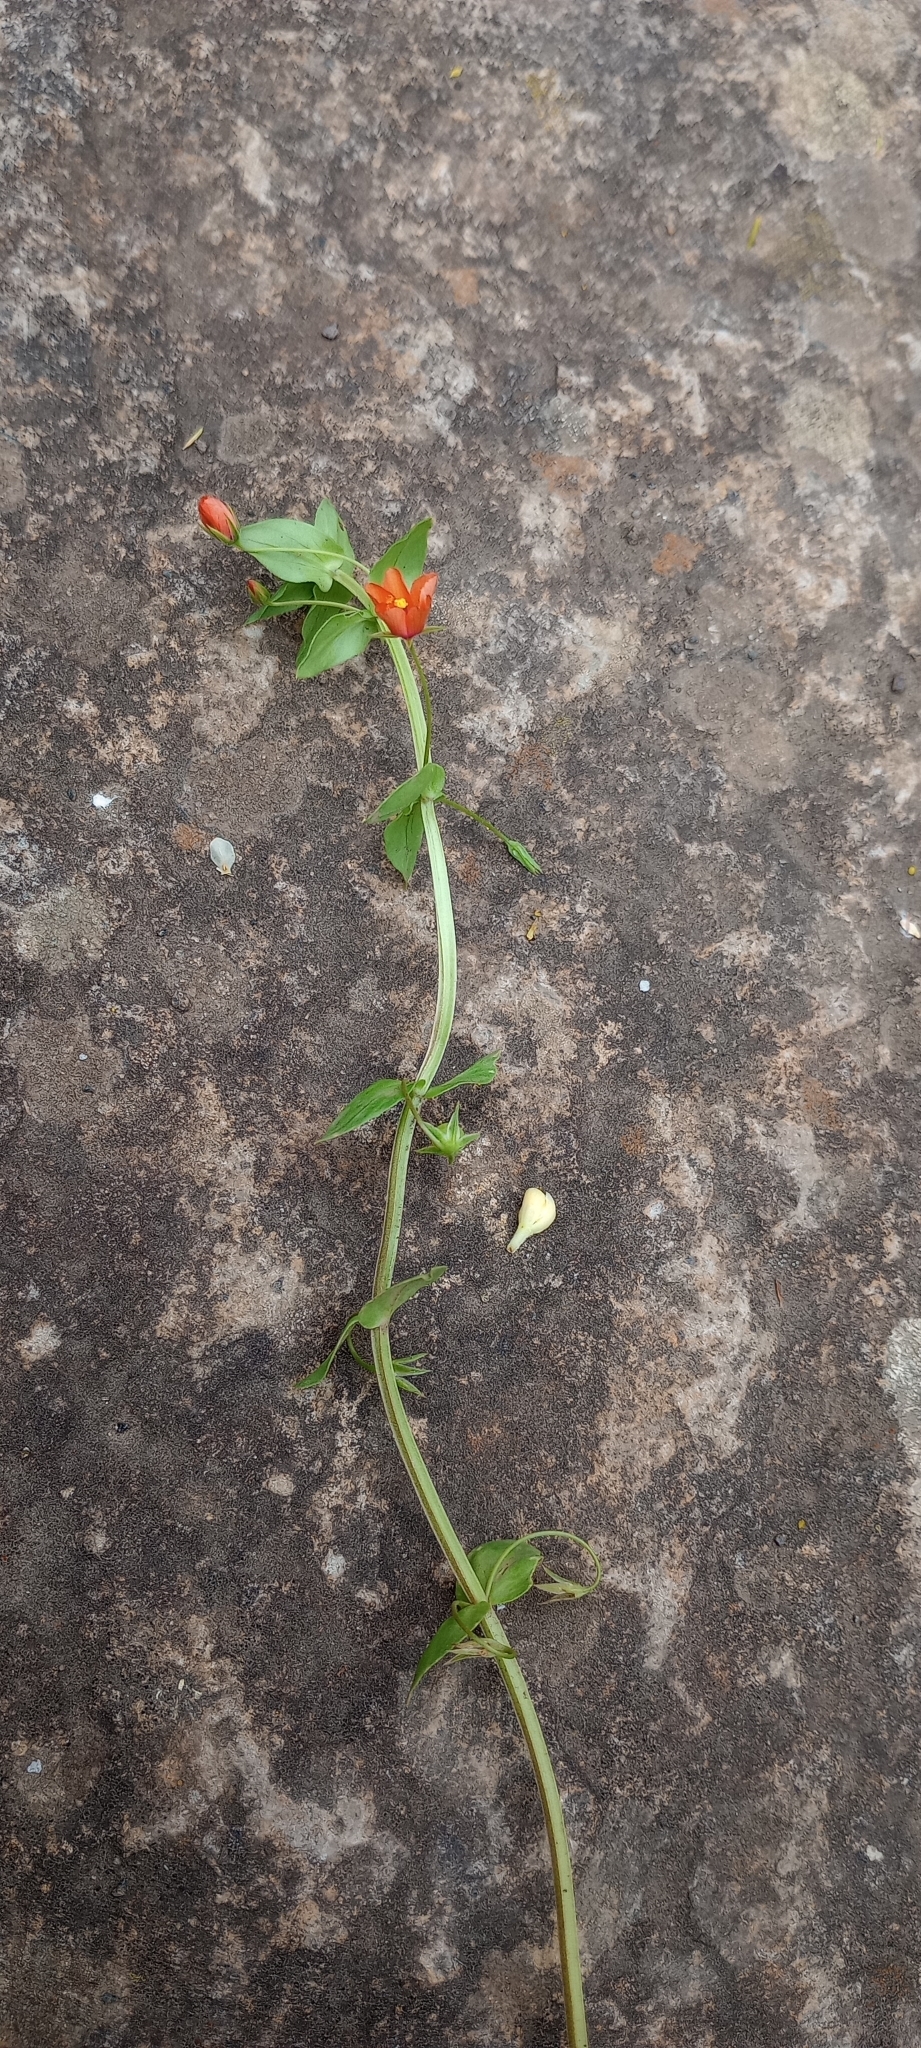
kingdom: Plantae
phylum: Tracheophyta
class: Magnoliopsida
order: Ericales
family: Primulaceae
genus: Lysimachia
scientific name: Lysimachia arvensis
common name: Scarlet pimpernel
